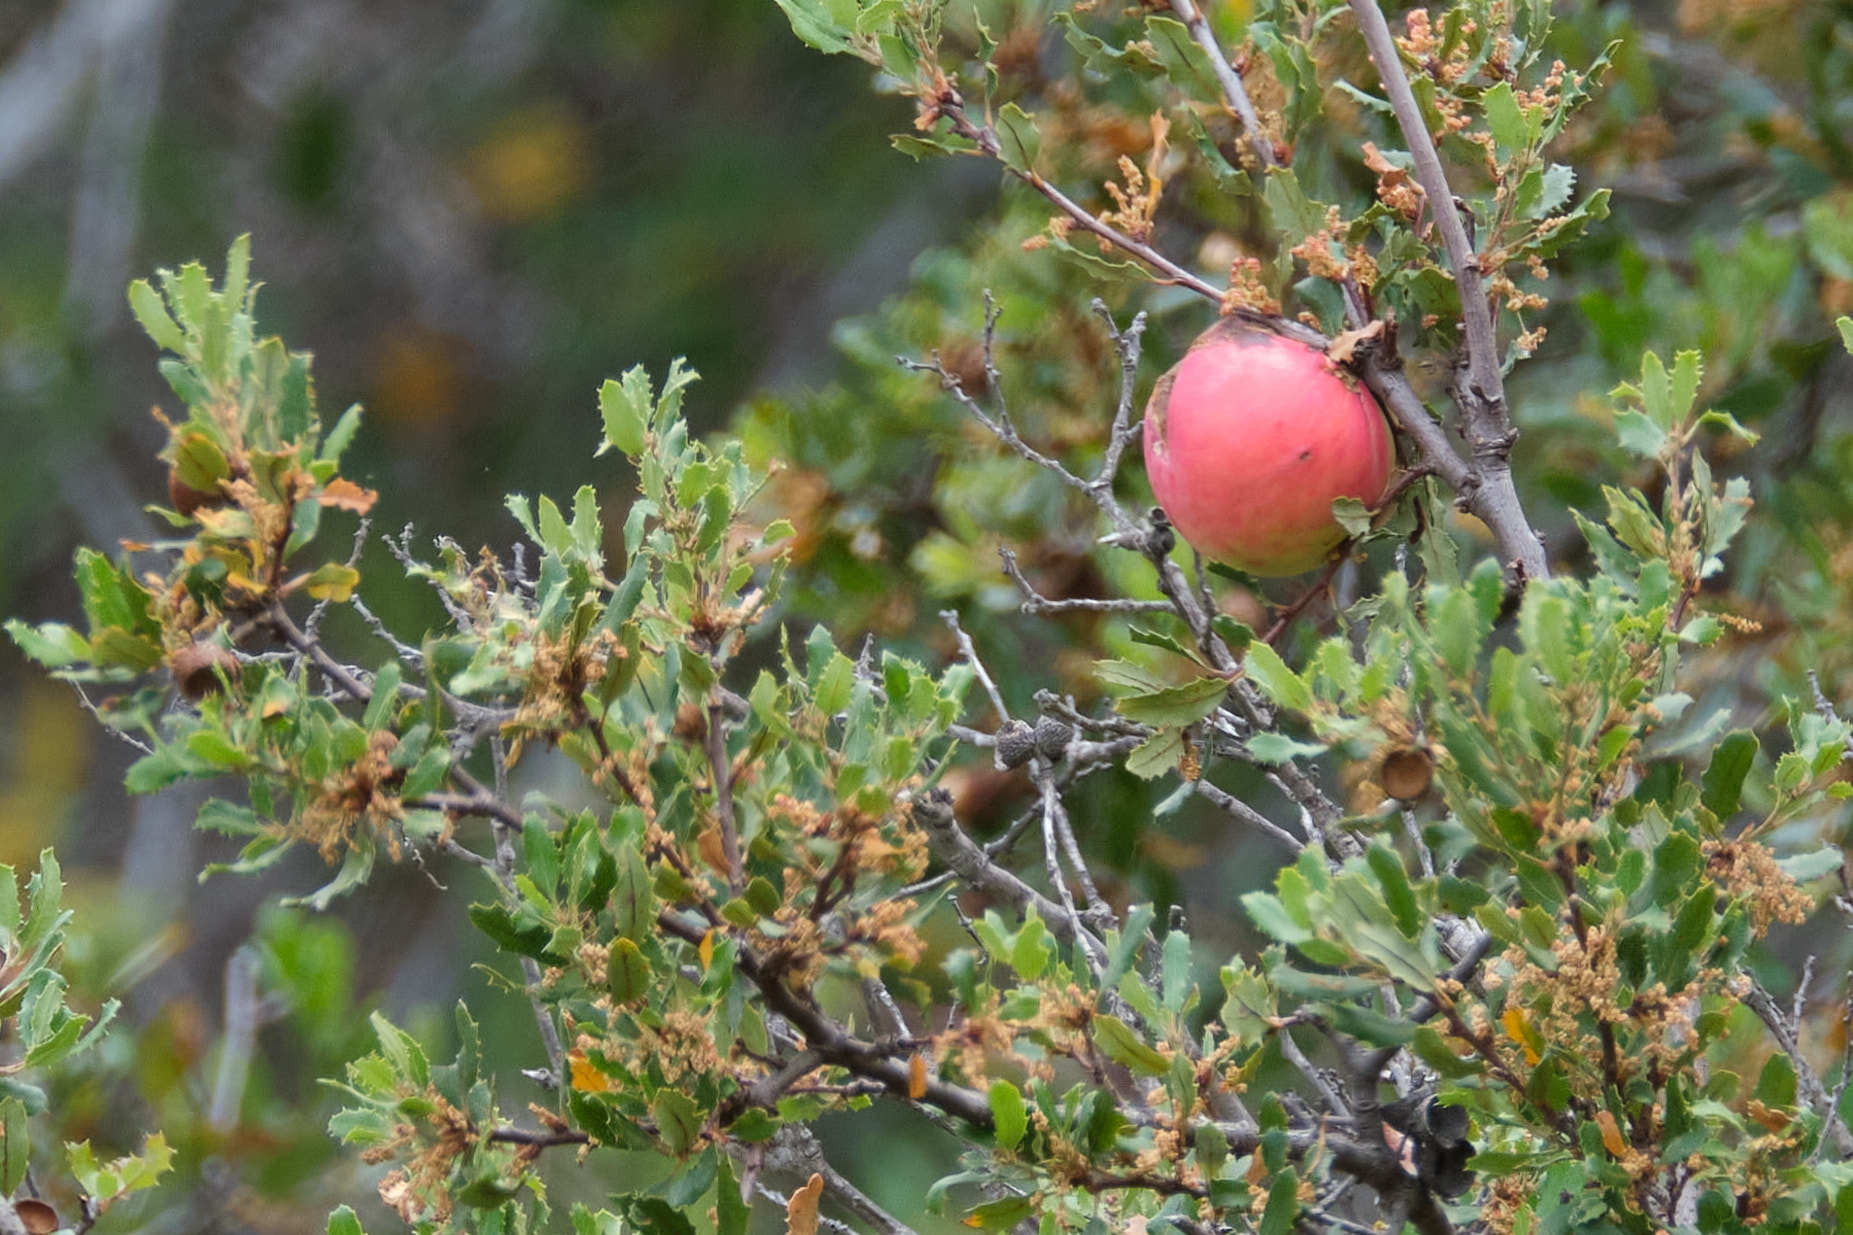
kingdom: Animalia
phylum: Arthropoda
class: Insecta
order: Hymenoptera
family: Cynipidae
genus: Andricus
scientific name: Andricus quercuscalifornicus
